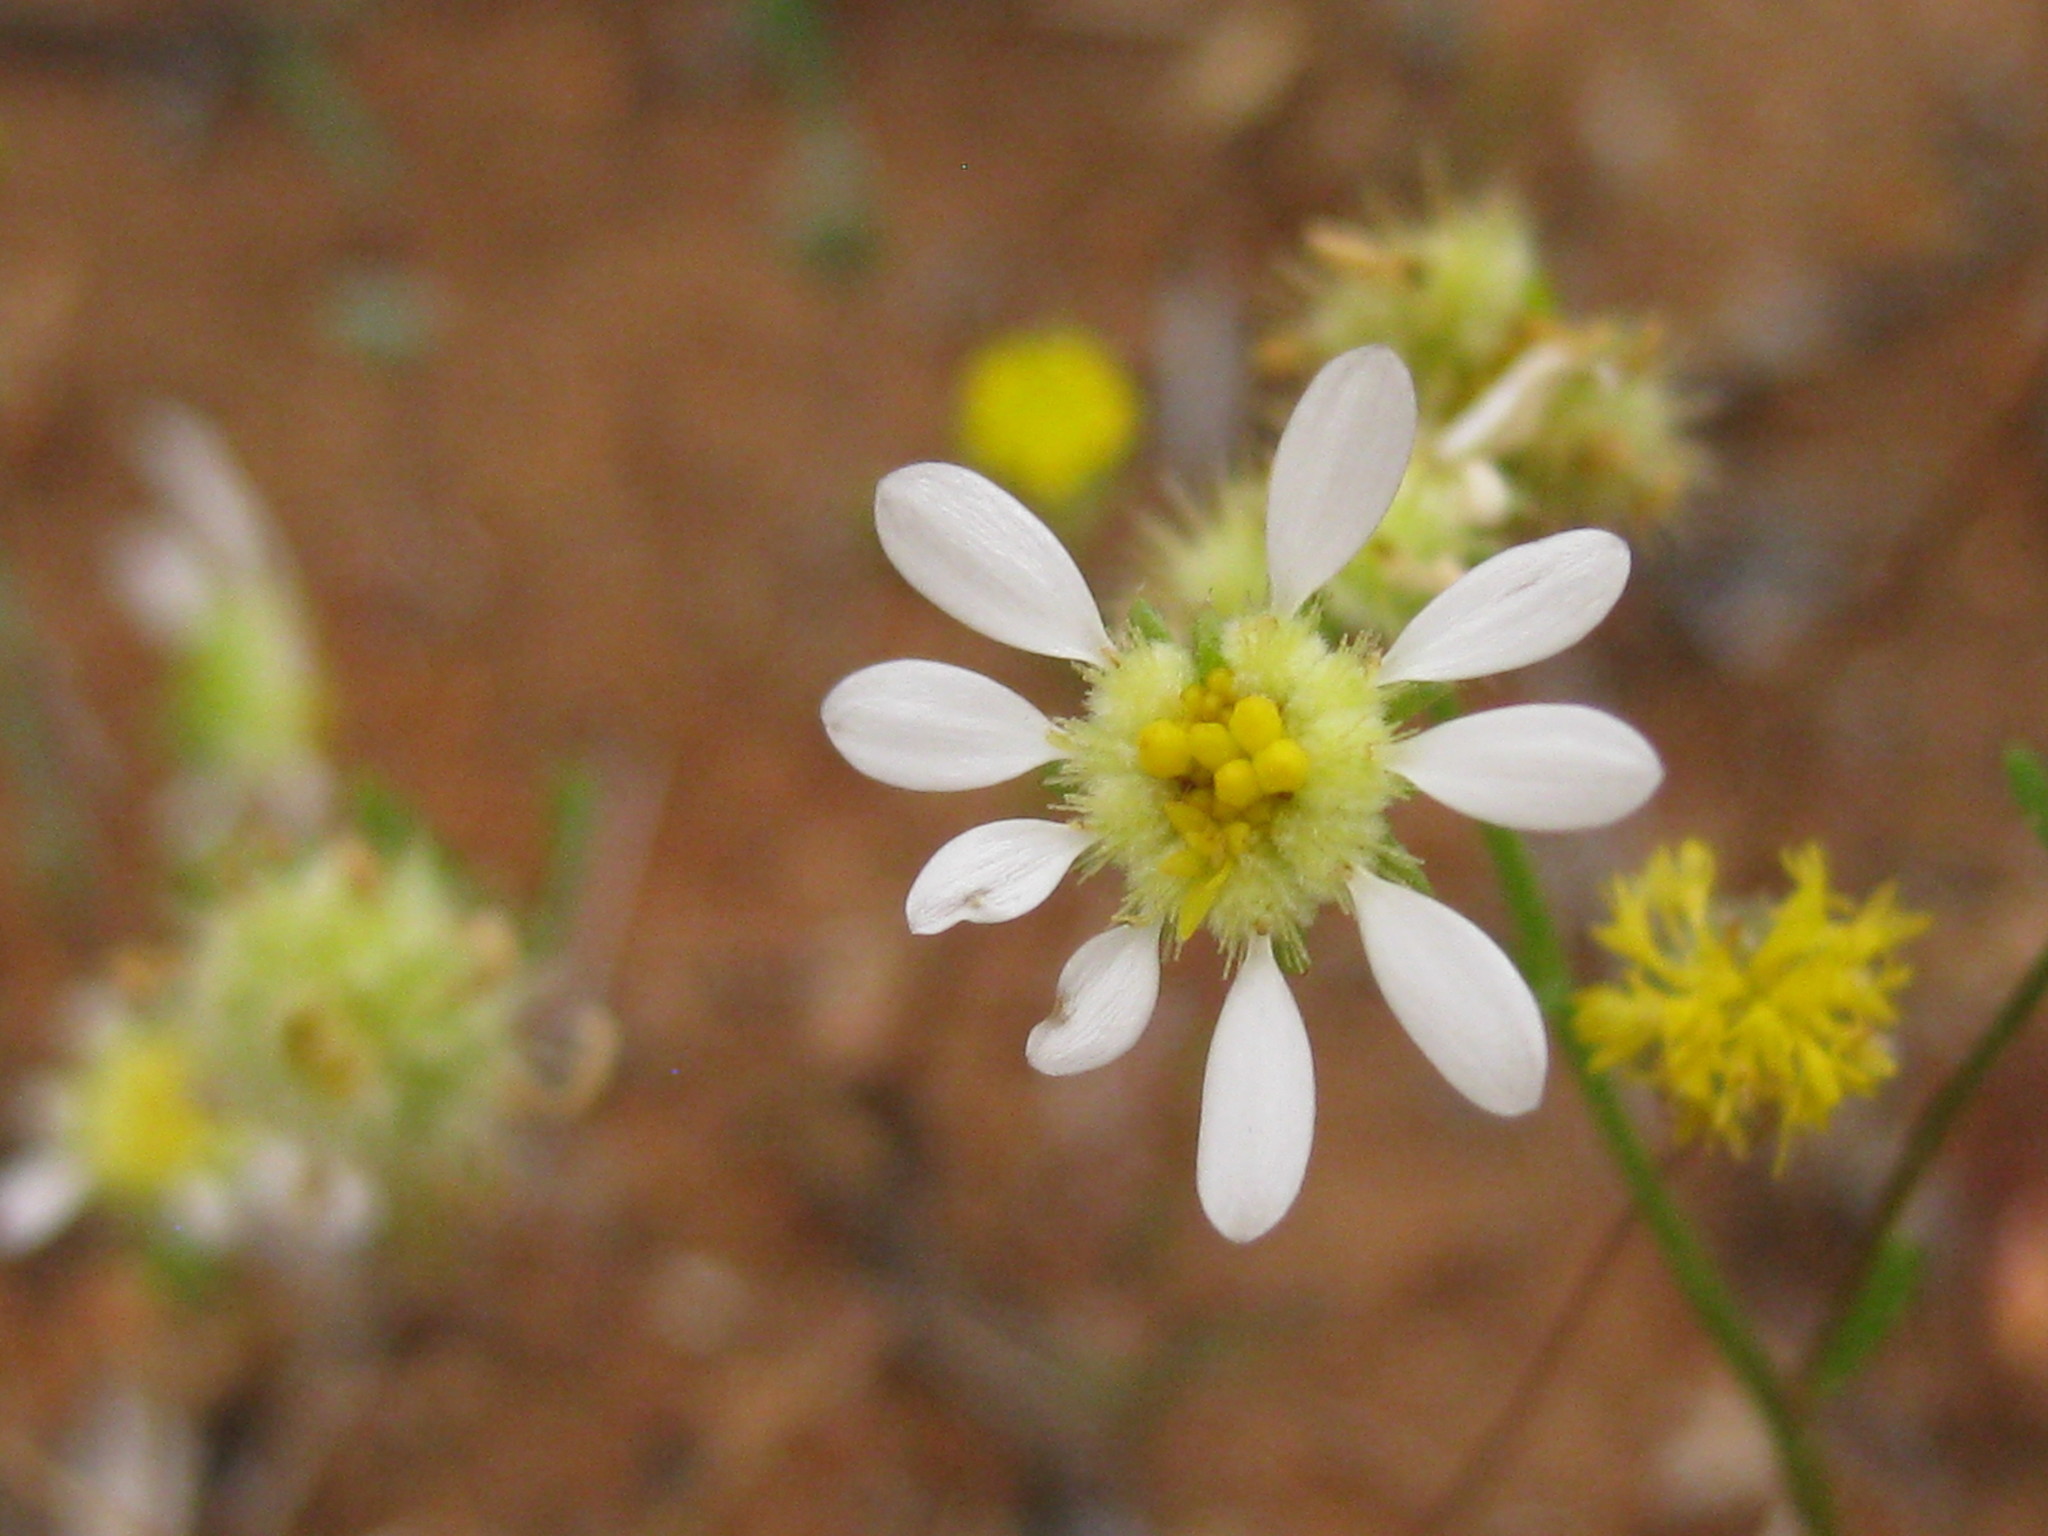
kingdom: Plantae
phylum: Tracheophyta
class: Magnoliopsida
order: Asterales
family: Asteraceae
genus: Calotis
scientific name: Calotis multicaulis
